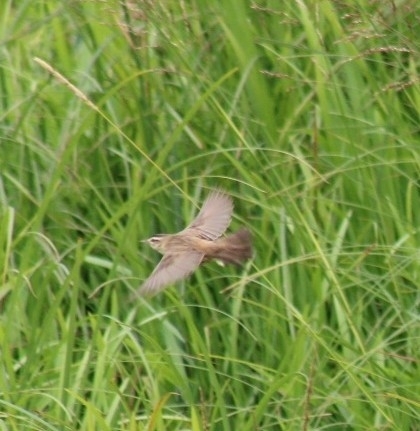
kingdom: Animalia
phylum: Chordata
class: Aves
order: Passeriformes
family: Acrocephalidae
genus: Acrocephalus
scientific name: Acrocephalus schoenobaenus
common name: Sedge warbler
